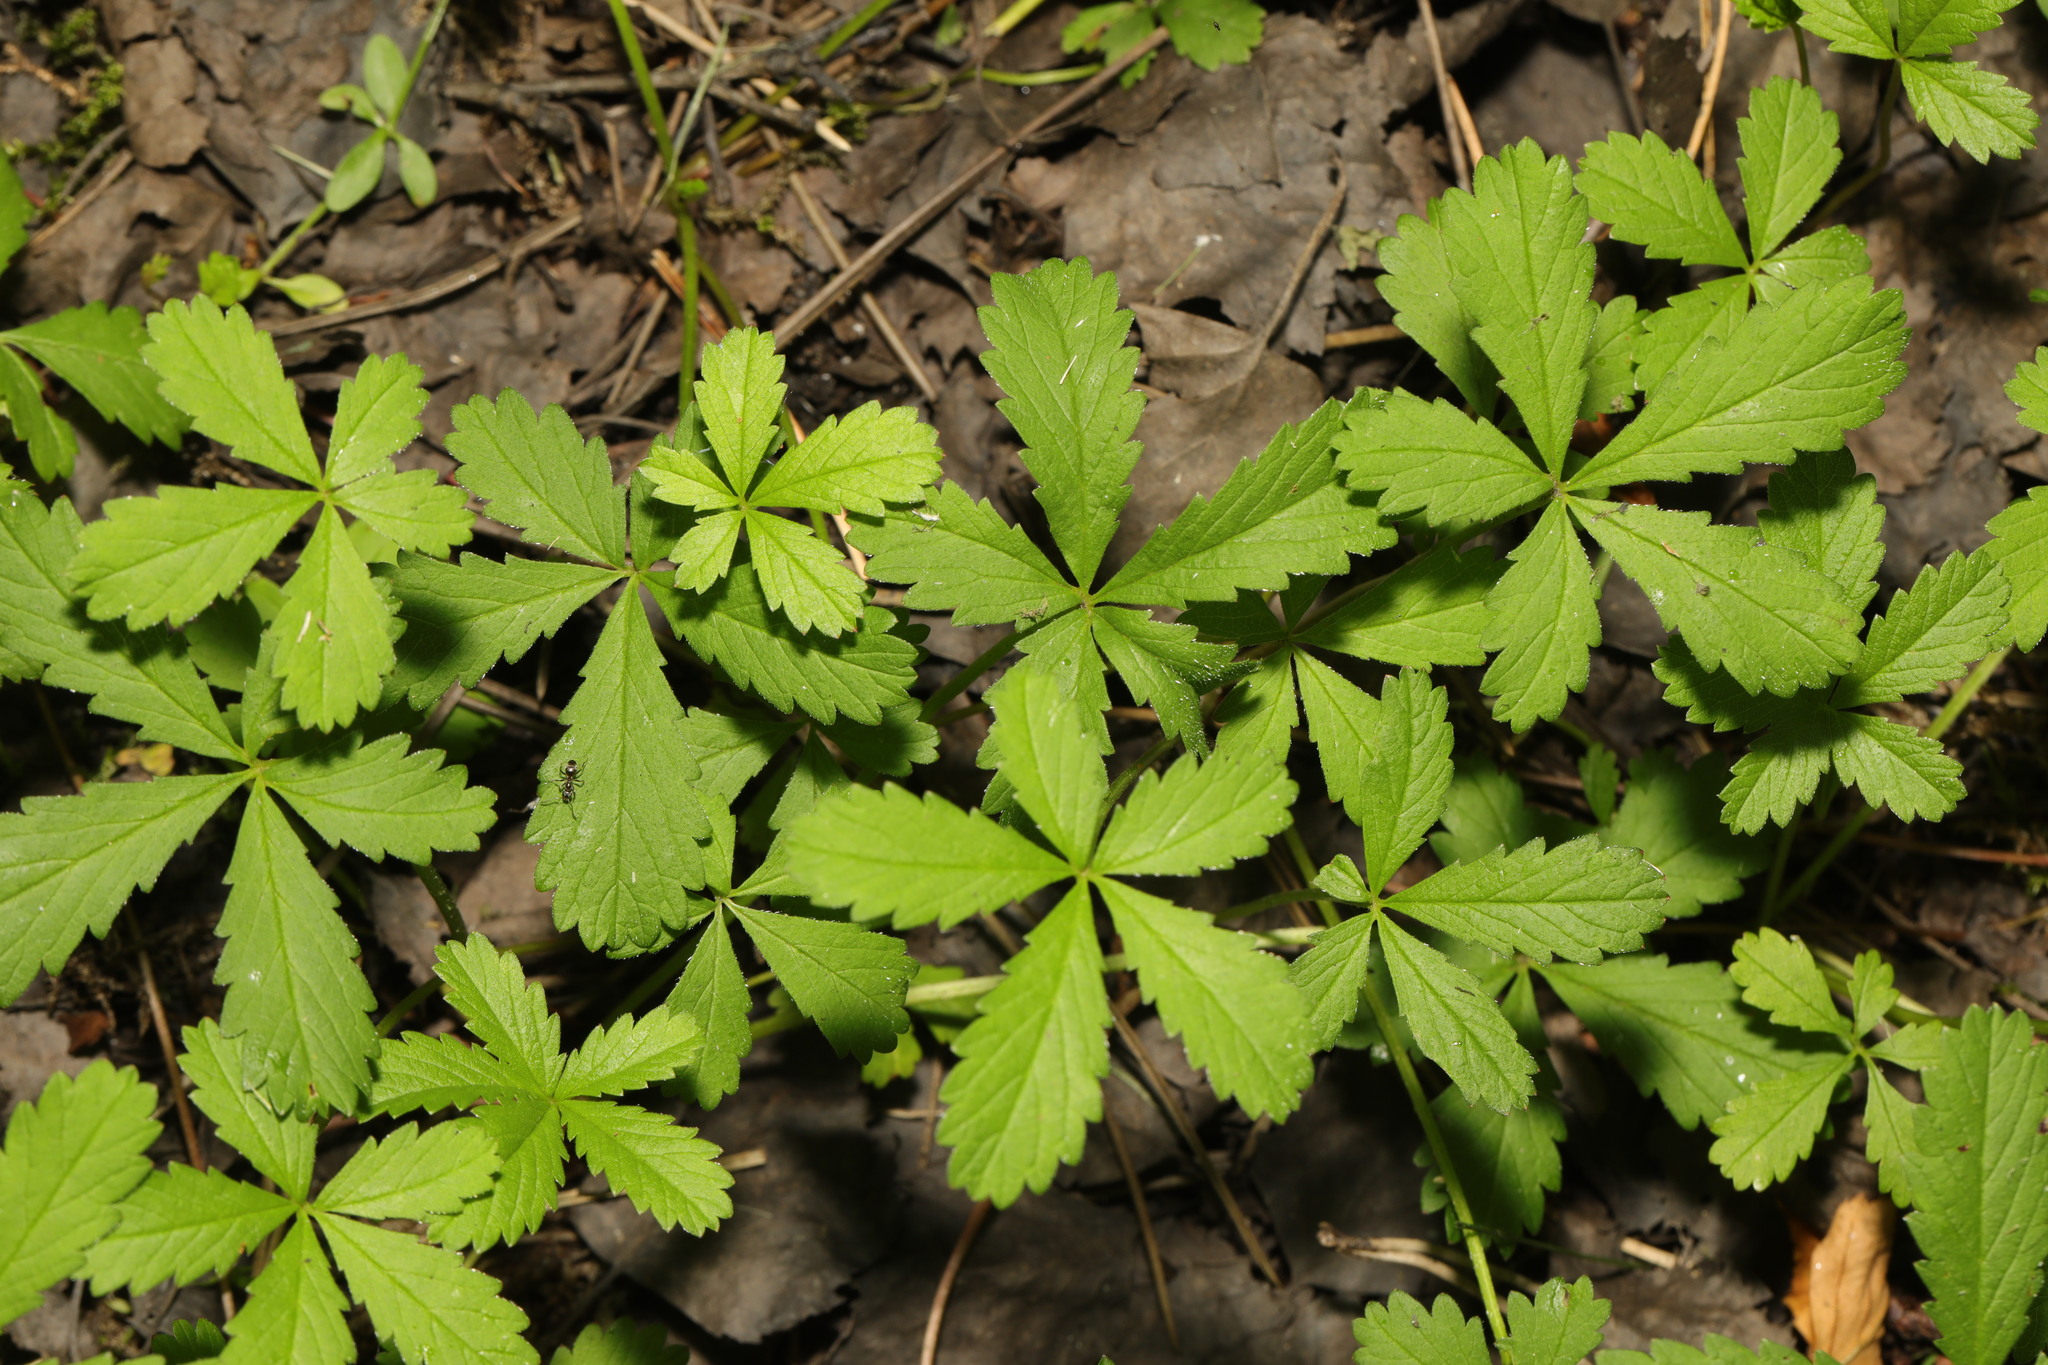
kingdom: Plantae
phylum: Tracheophyta
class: Magnoliopsida
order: Rosales
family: Rosaceae
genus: Potentilla
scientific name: Potentilla reptans
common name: Creeping cinquefoil
